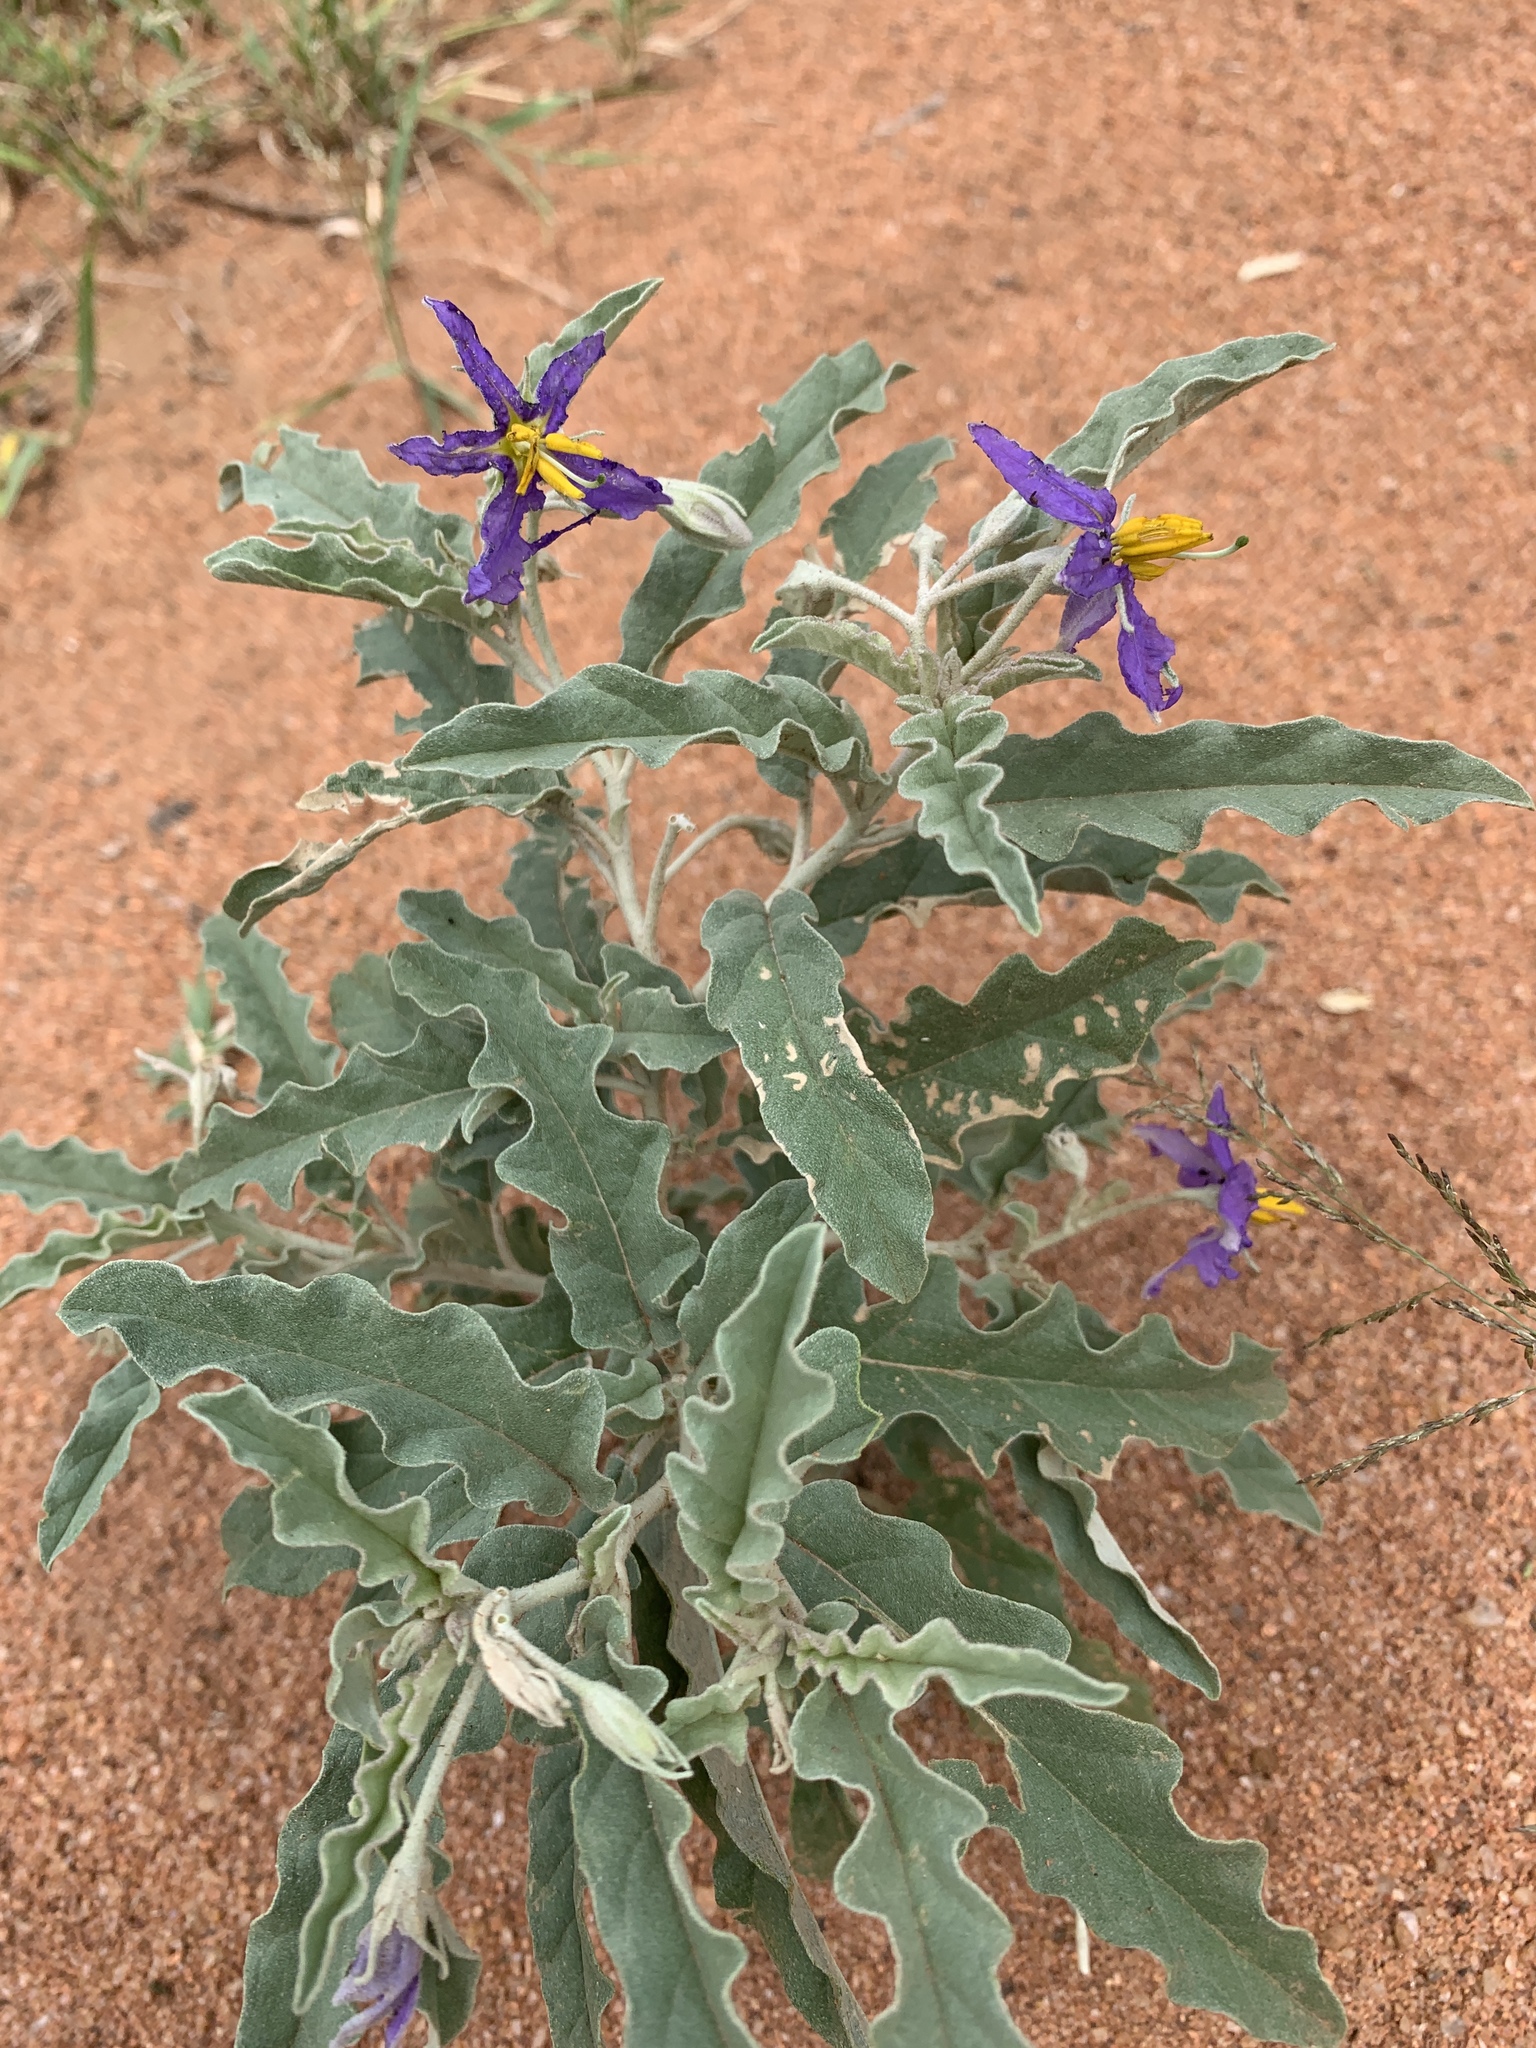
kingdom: Plantae
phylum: Tracheophyta
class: Magnoliopsida
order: Solanales
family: Solanaceae
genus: Solanum
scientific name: Solanum elaeagnifolium
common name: Silverleaf nightshade
